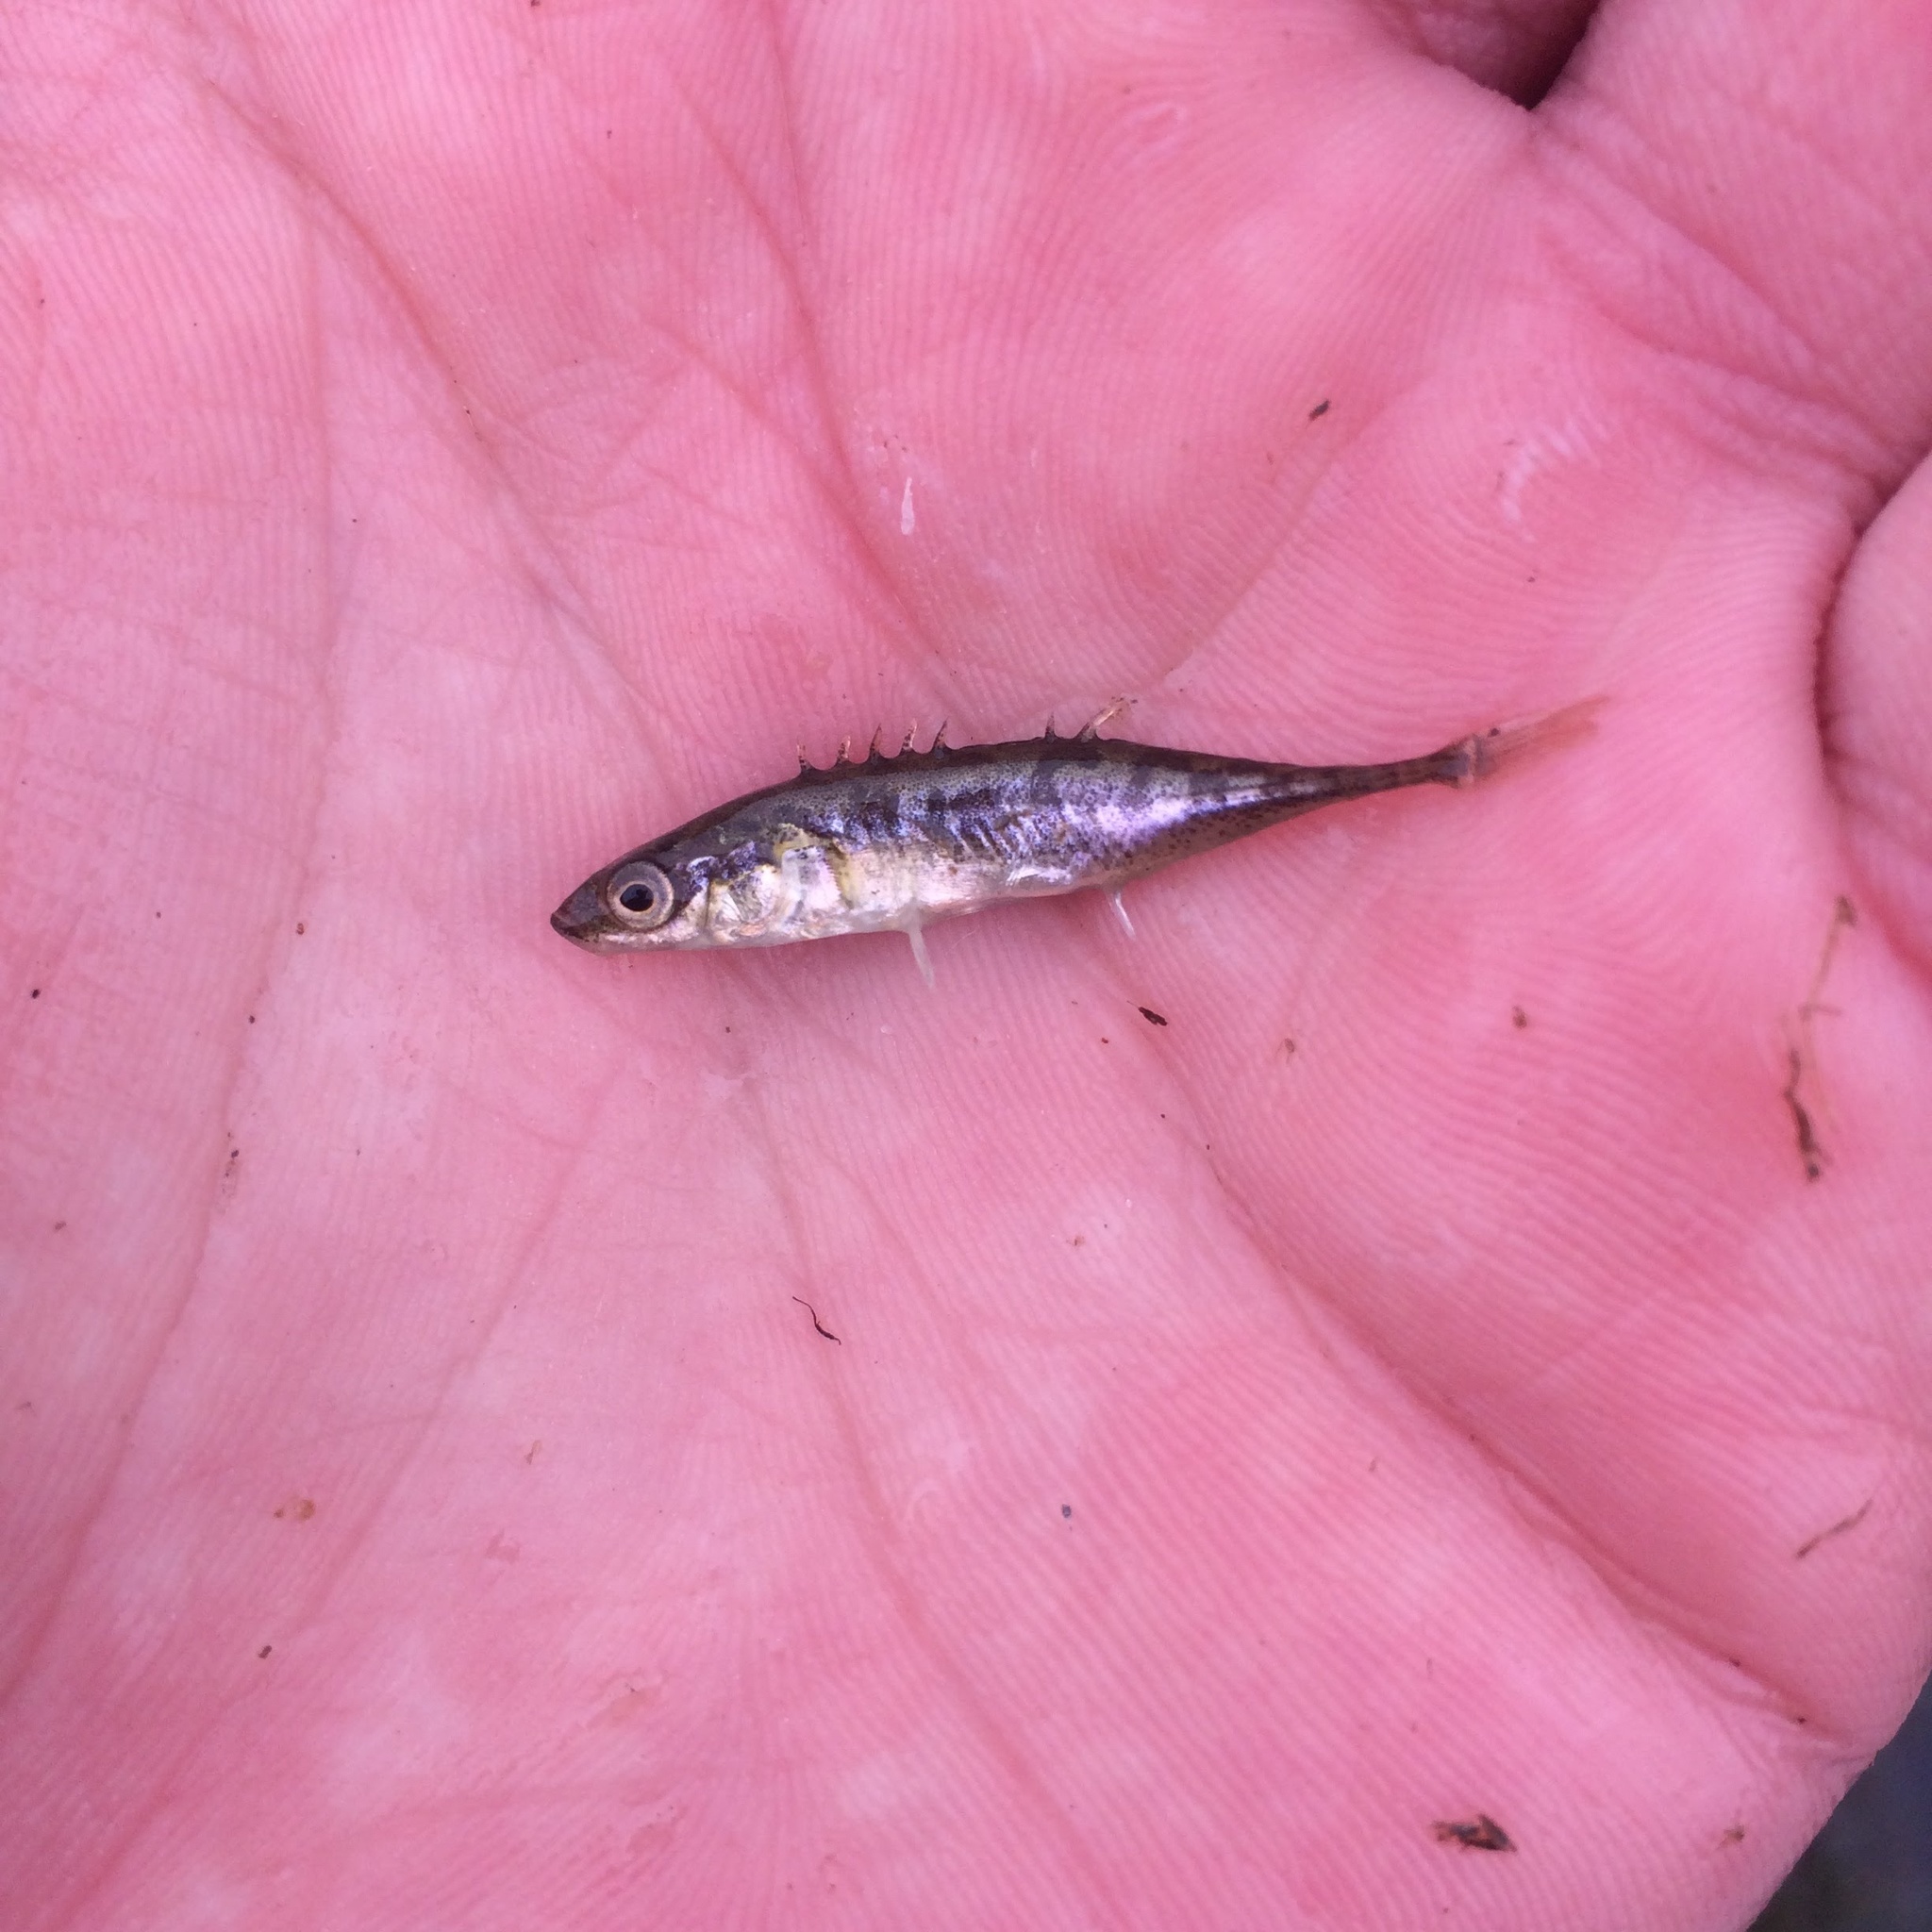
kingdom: Animalia
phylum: Chordata
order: Gasterosteiformes
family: Gasterosteidae
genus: Pungitius
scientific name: Pungitius pungitius
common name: Nine-spined stickleback
